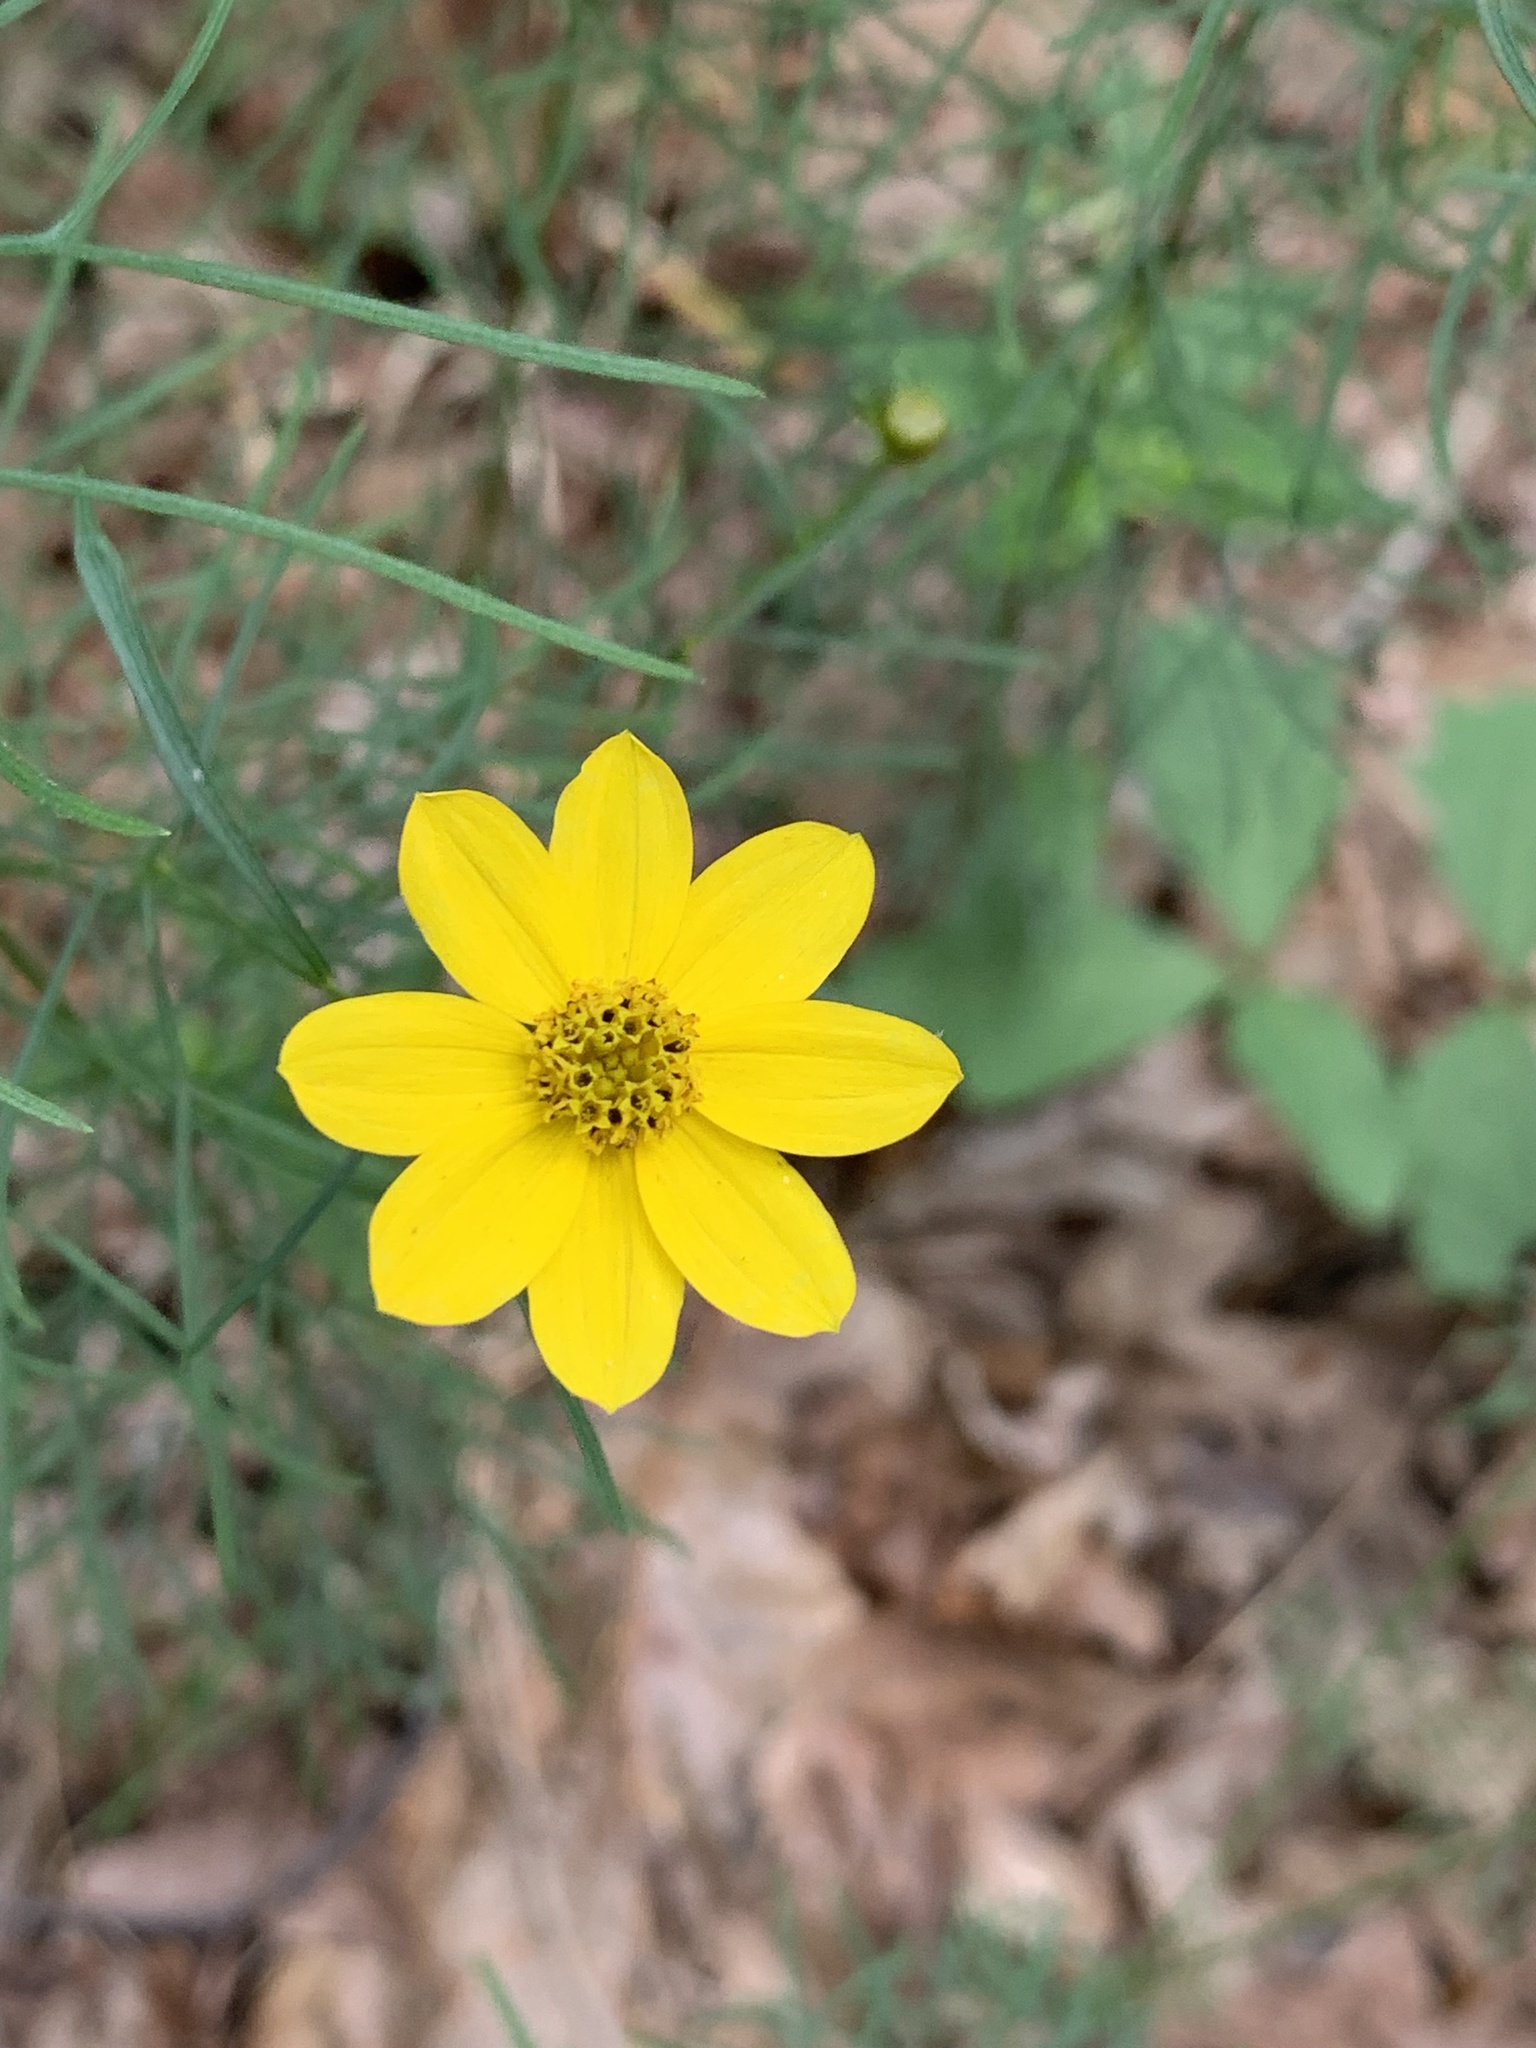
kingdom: Plantae
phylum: Tracheophyta
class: Magnoliopsida
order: Asterales
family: Asteraceae
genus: Coreopsis
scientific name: Coreopsis verticillata
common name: Whorled tickseed
